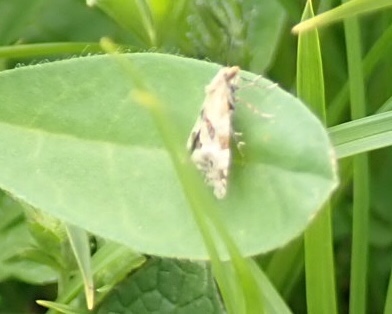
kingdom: Animalia
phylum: Arthropoda
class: Insecta
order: Lepidoptera
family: Tortricidae
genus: Aethes
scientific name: Aethes deutschiana
